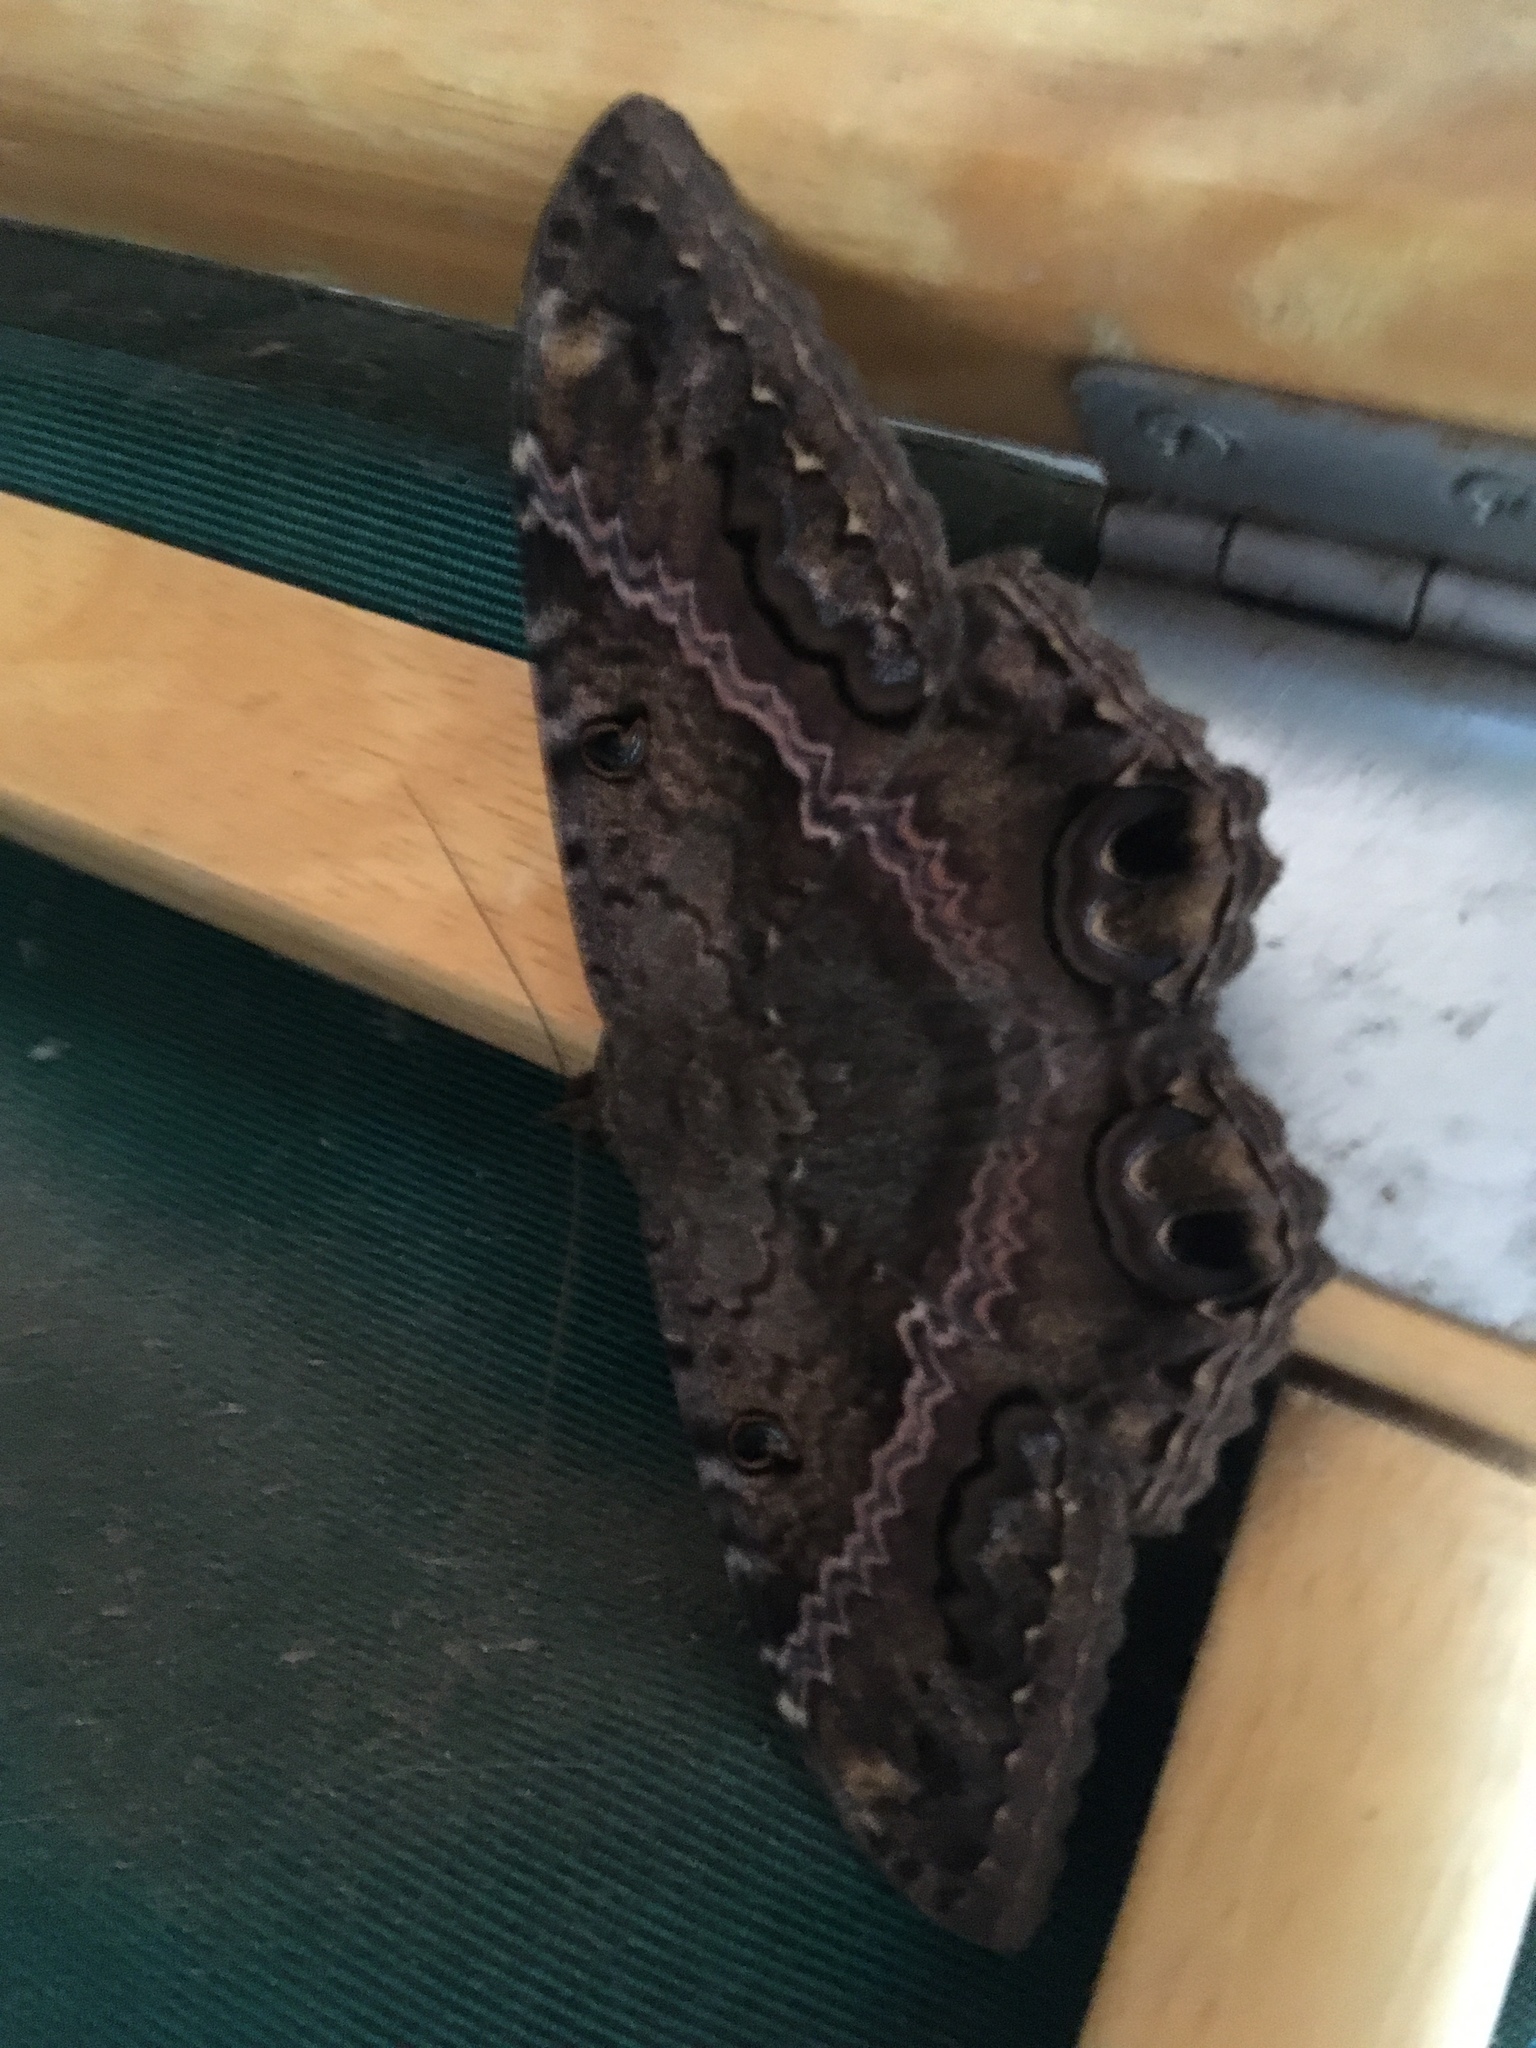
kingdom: Animalia
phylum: Arthropoda
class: Insecta
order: Lepidoptera
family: Erebidae
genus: Ascalapha
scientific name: Ascalapha odorata
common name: Black witch
